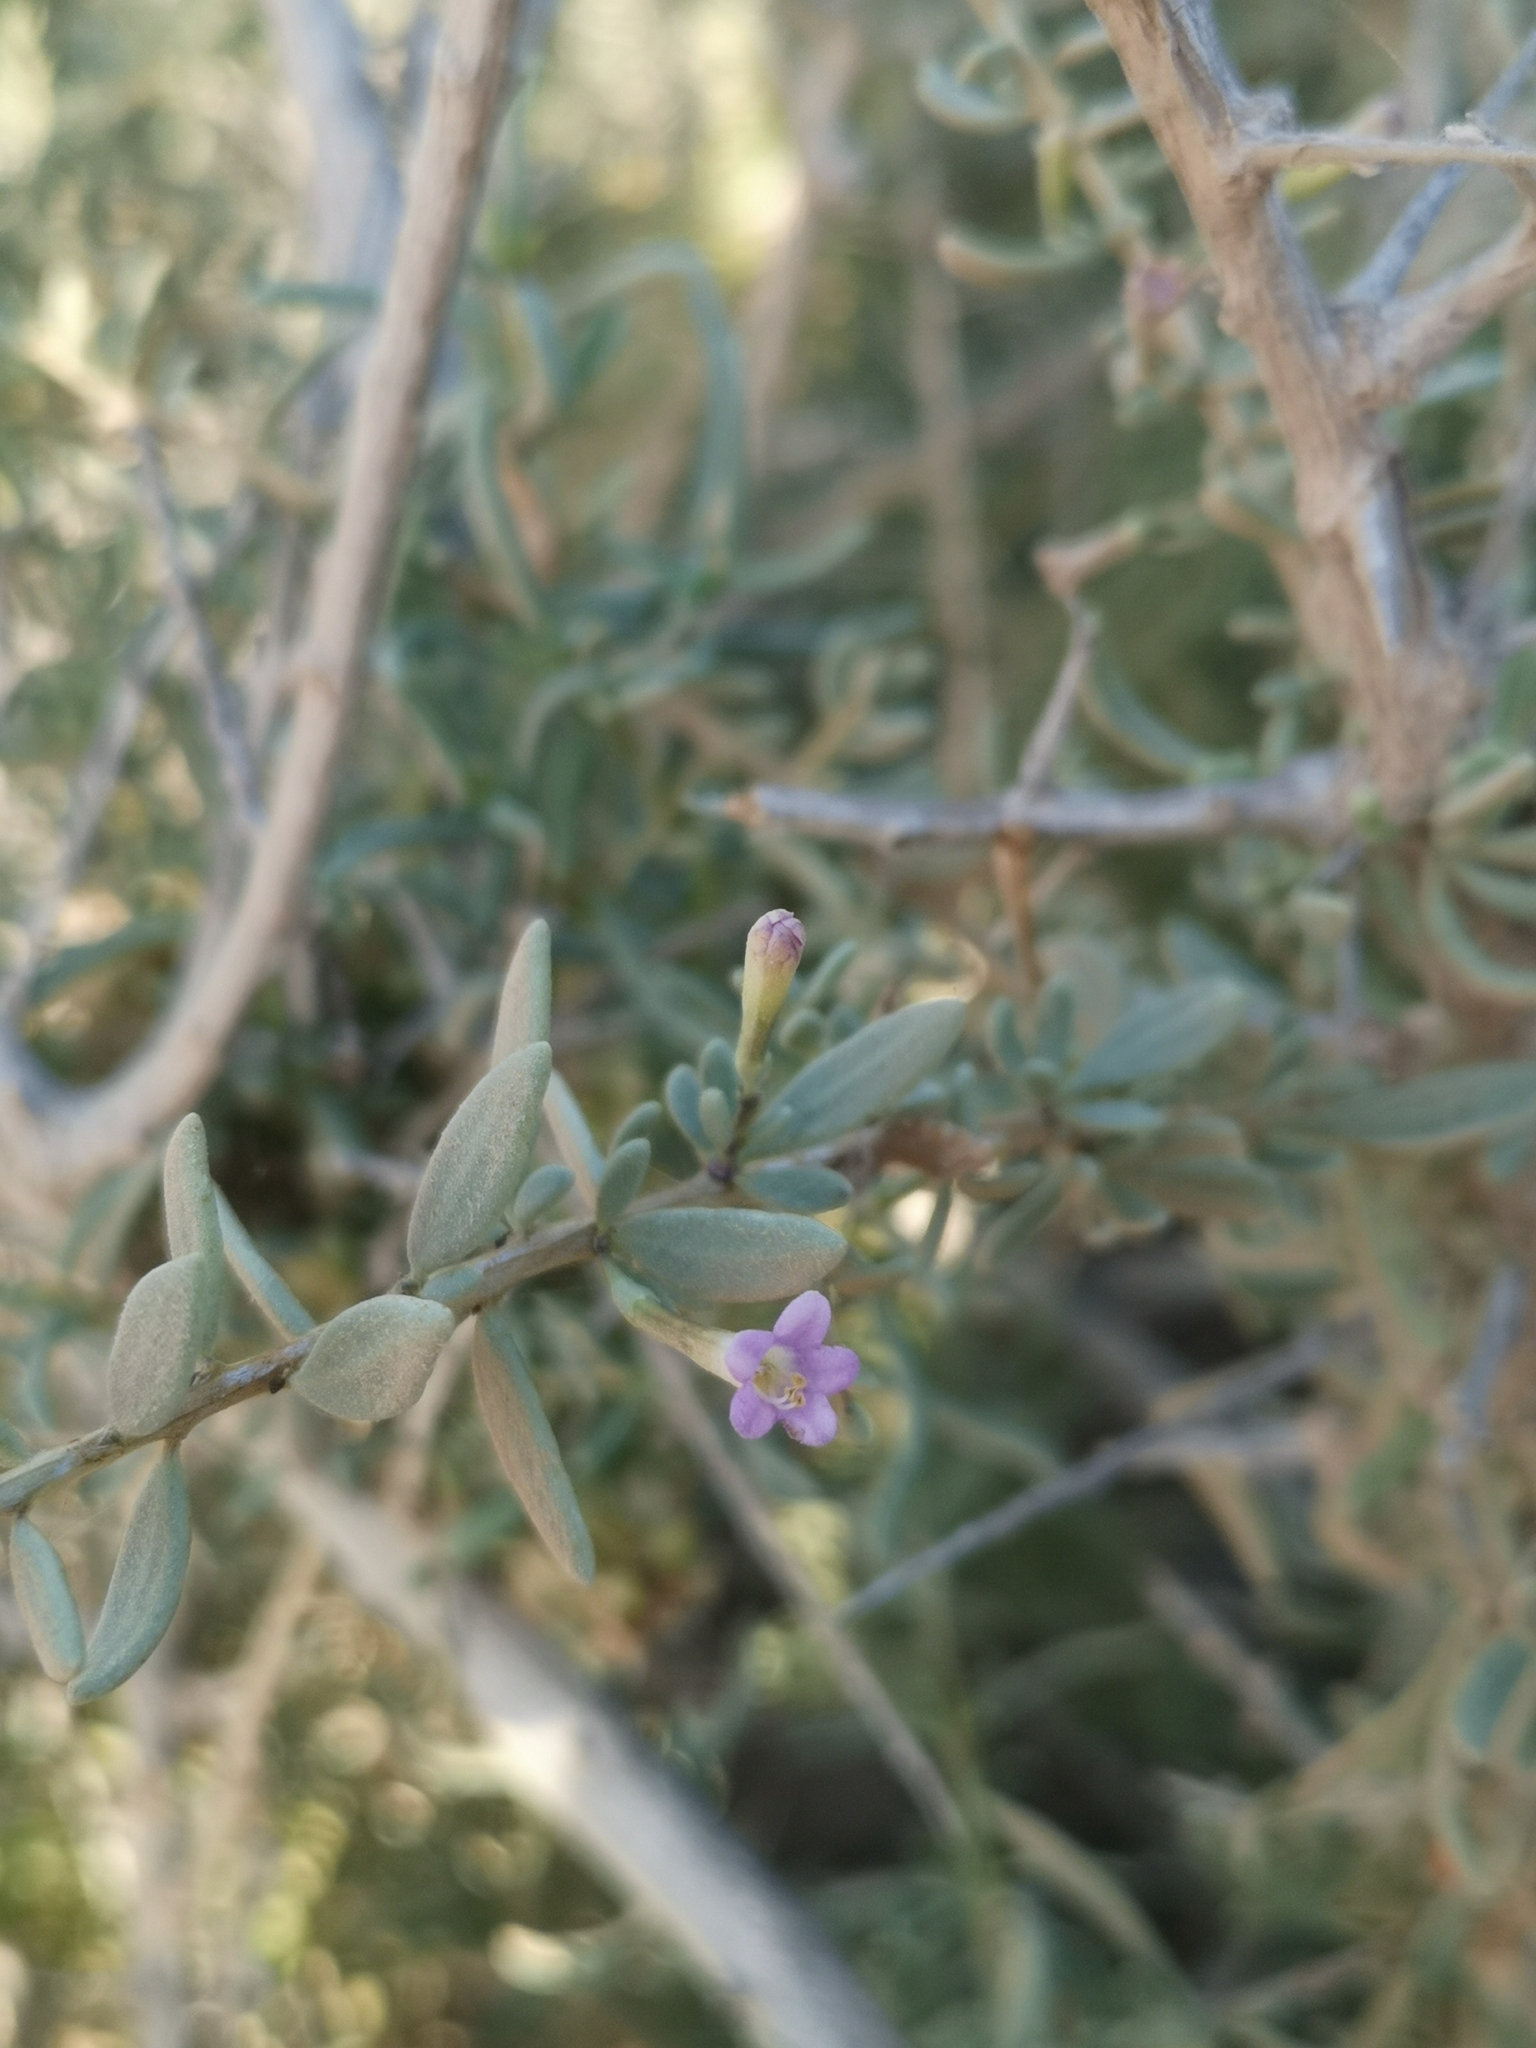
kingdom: Plantae
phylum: Tracheophyta
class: Magnoliopsida
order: Solanales
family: Solanaceae
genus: Lycium
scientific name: Lycium intricatum
